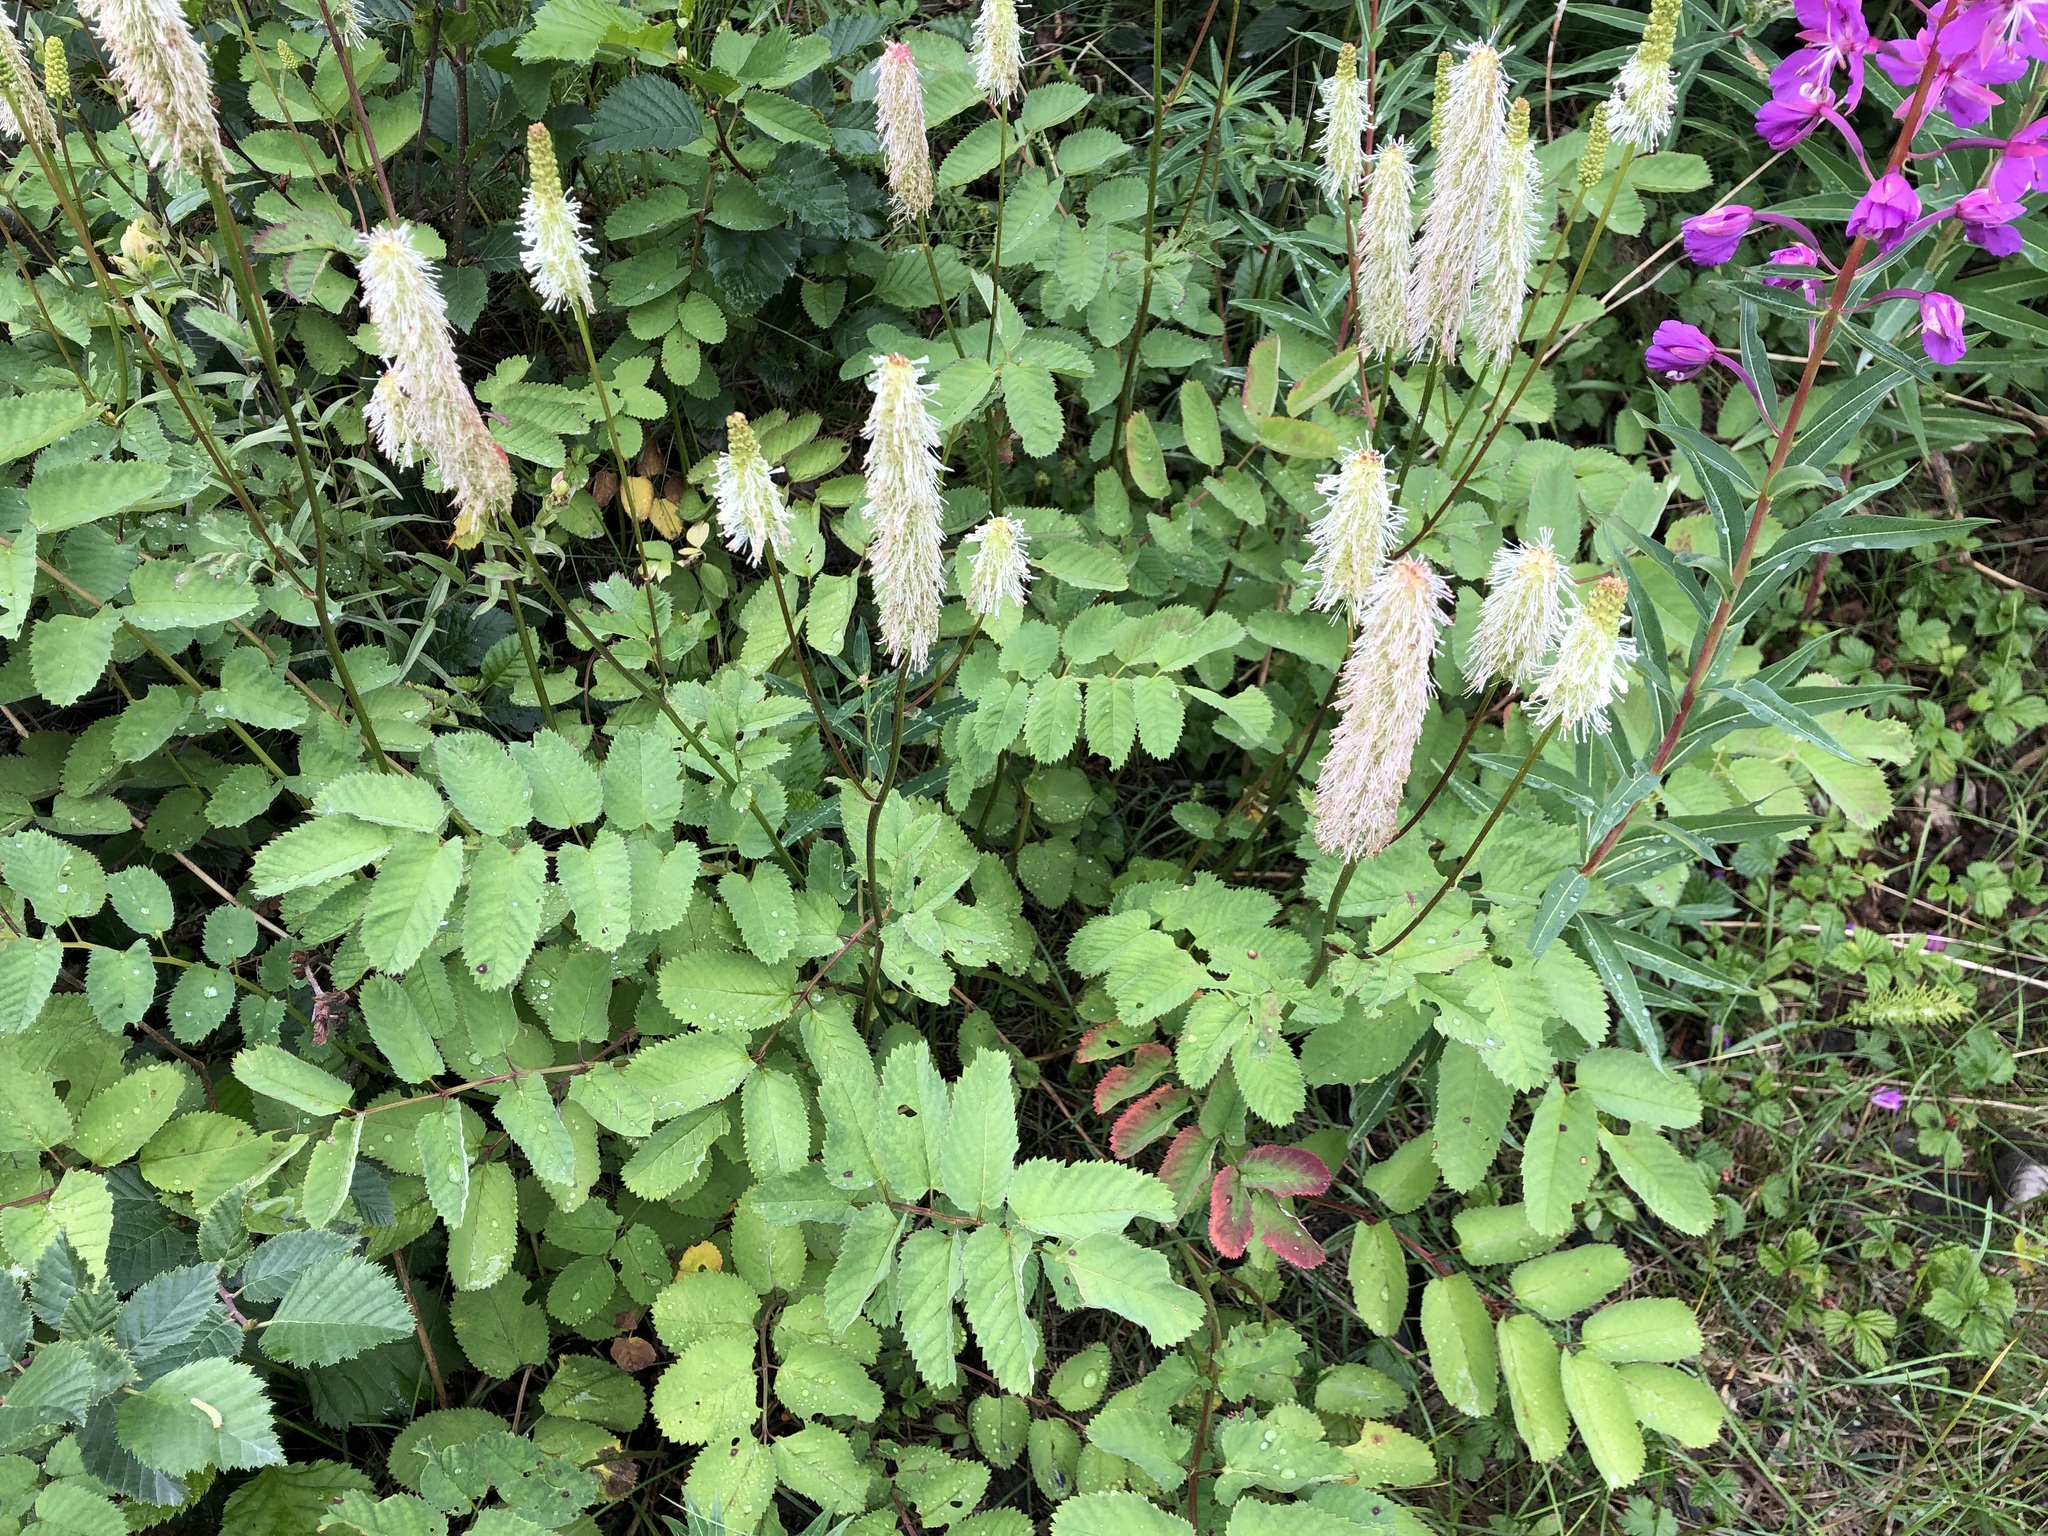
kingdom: Plantae
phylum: Tracheophyta
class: Magnoliopsida
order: Rosales
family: Rosaceae
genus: Sanguisorba
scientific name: Sanguisorba stipulata
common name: Sitka burnet
